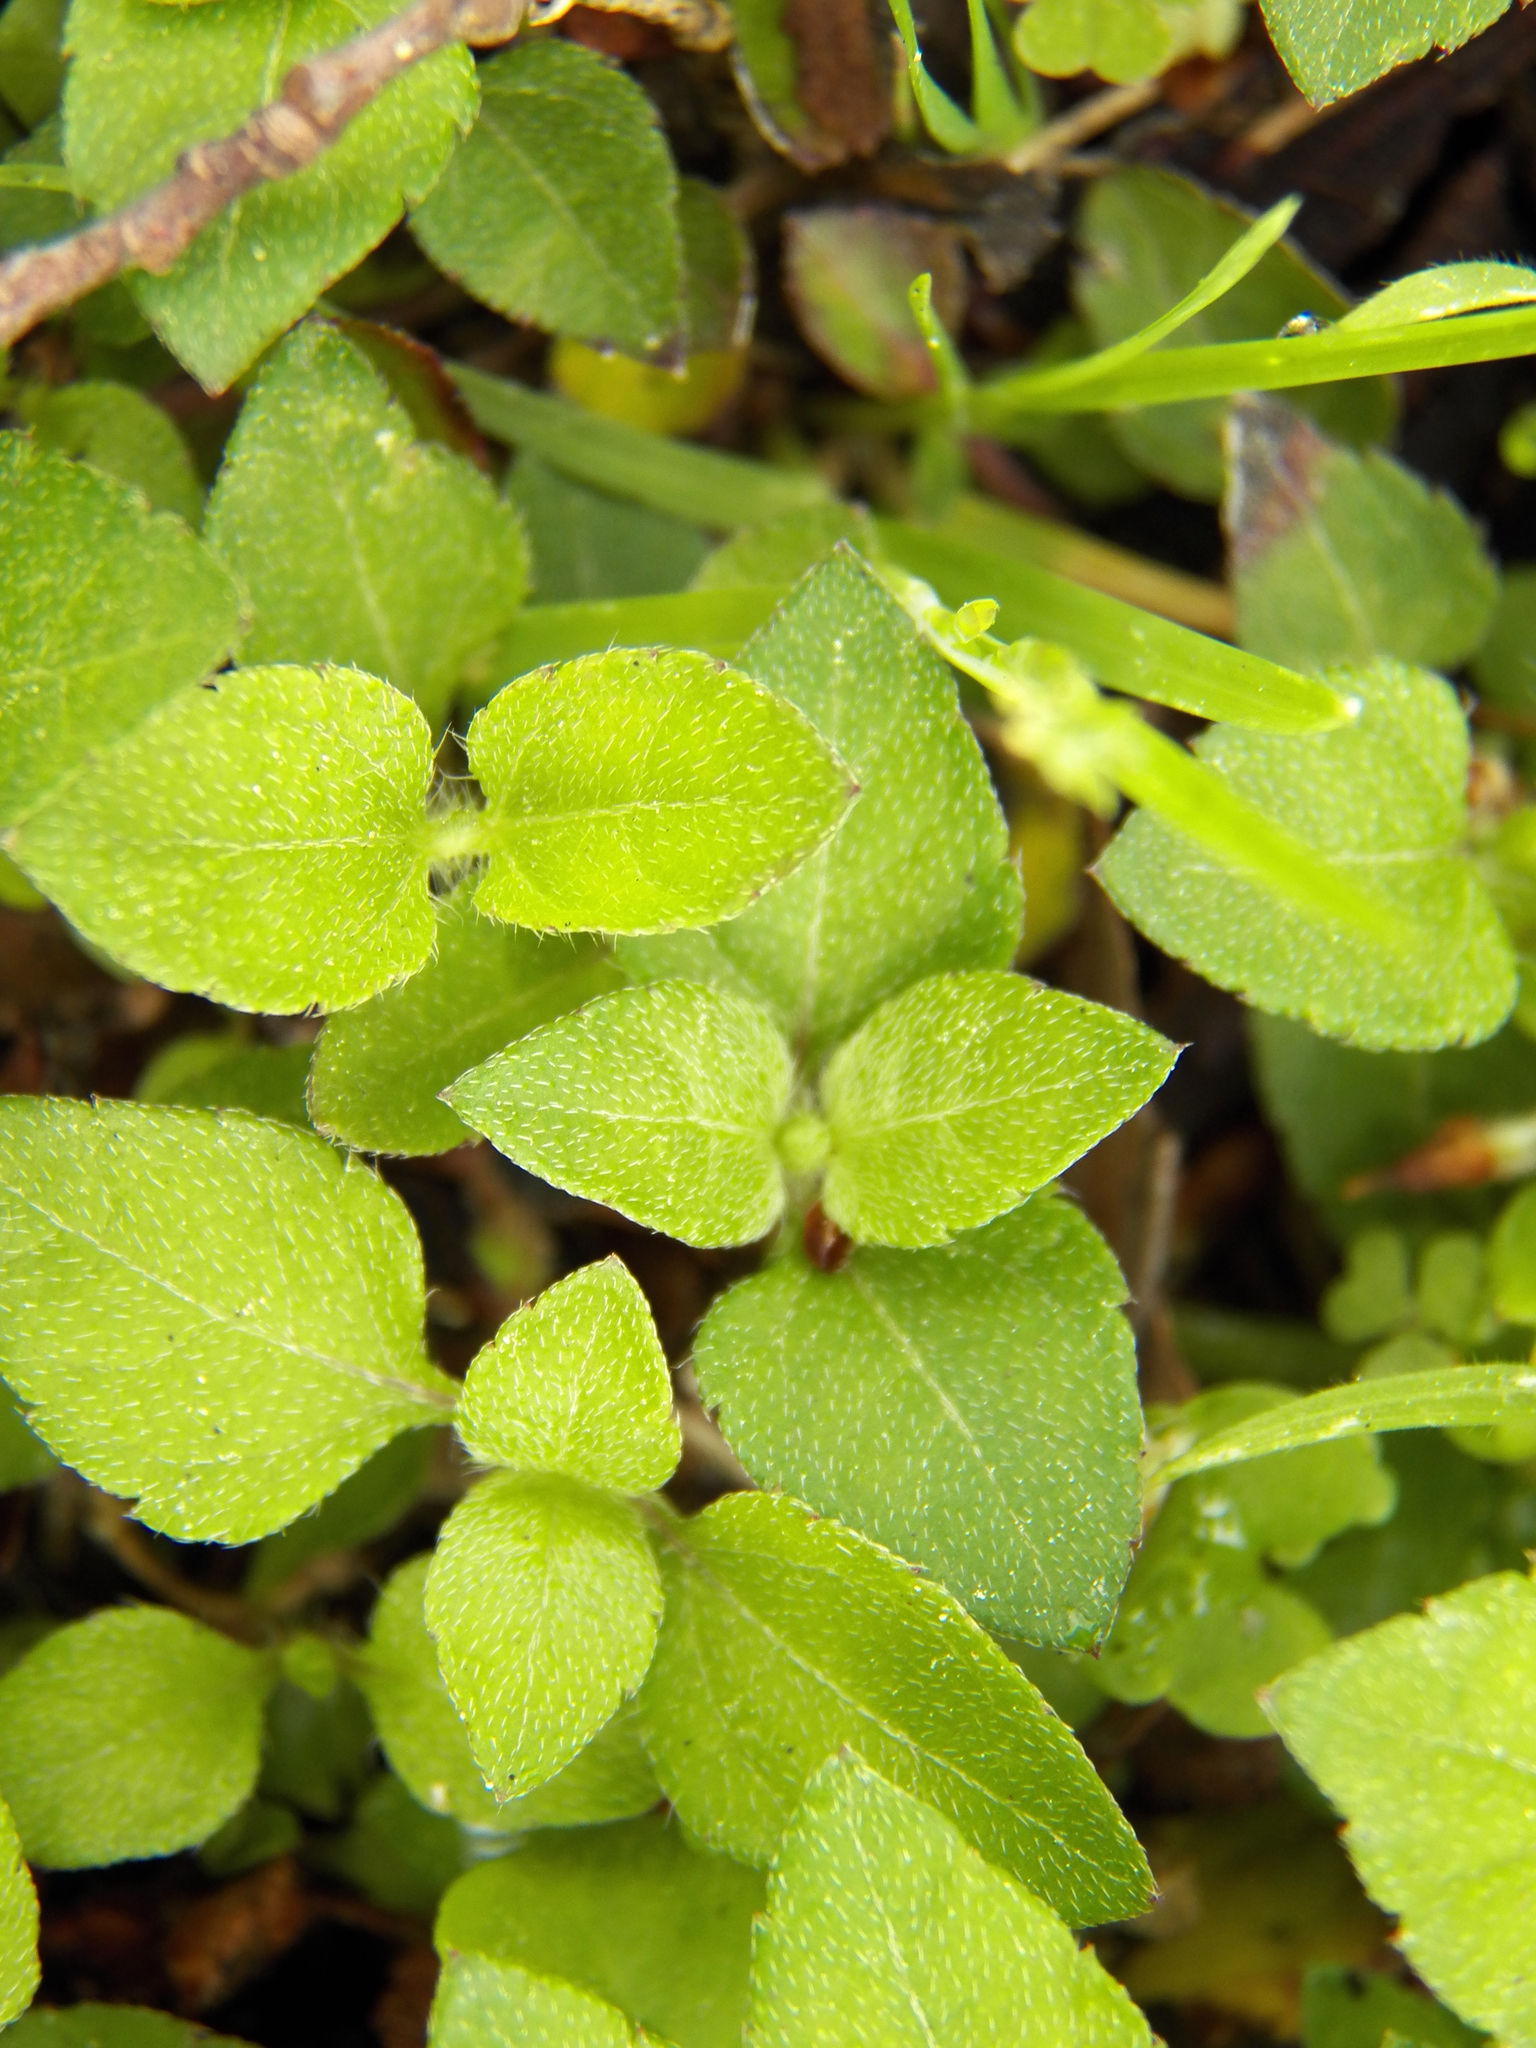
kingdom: Plantae
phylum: Tracheophyta
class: Magnoliopsida
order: Asterales
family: Asteraceae
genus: Calyptocarpus
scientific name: Calyptocarpus vialis
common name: Straggler daisy
